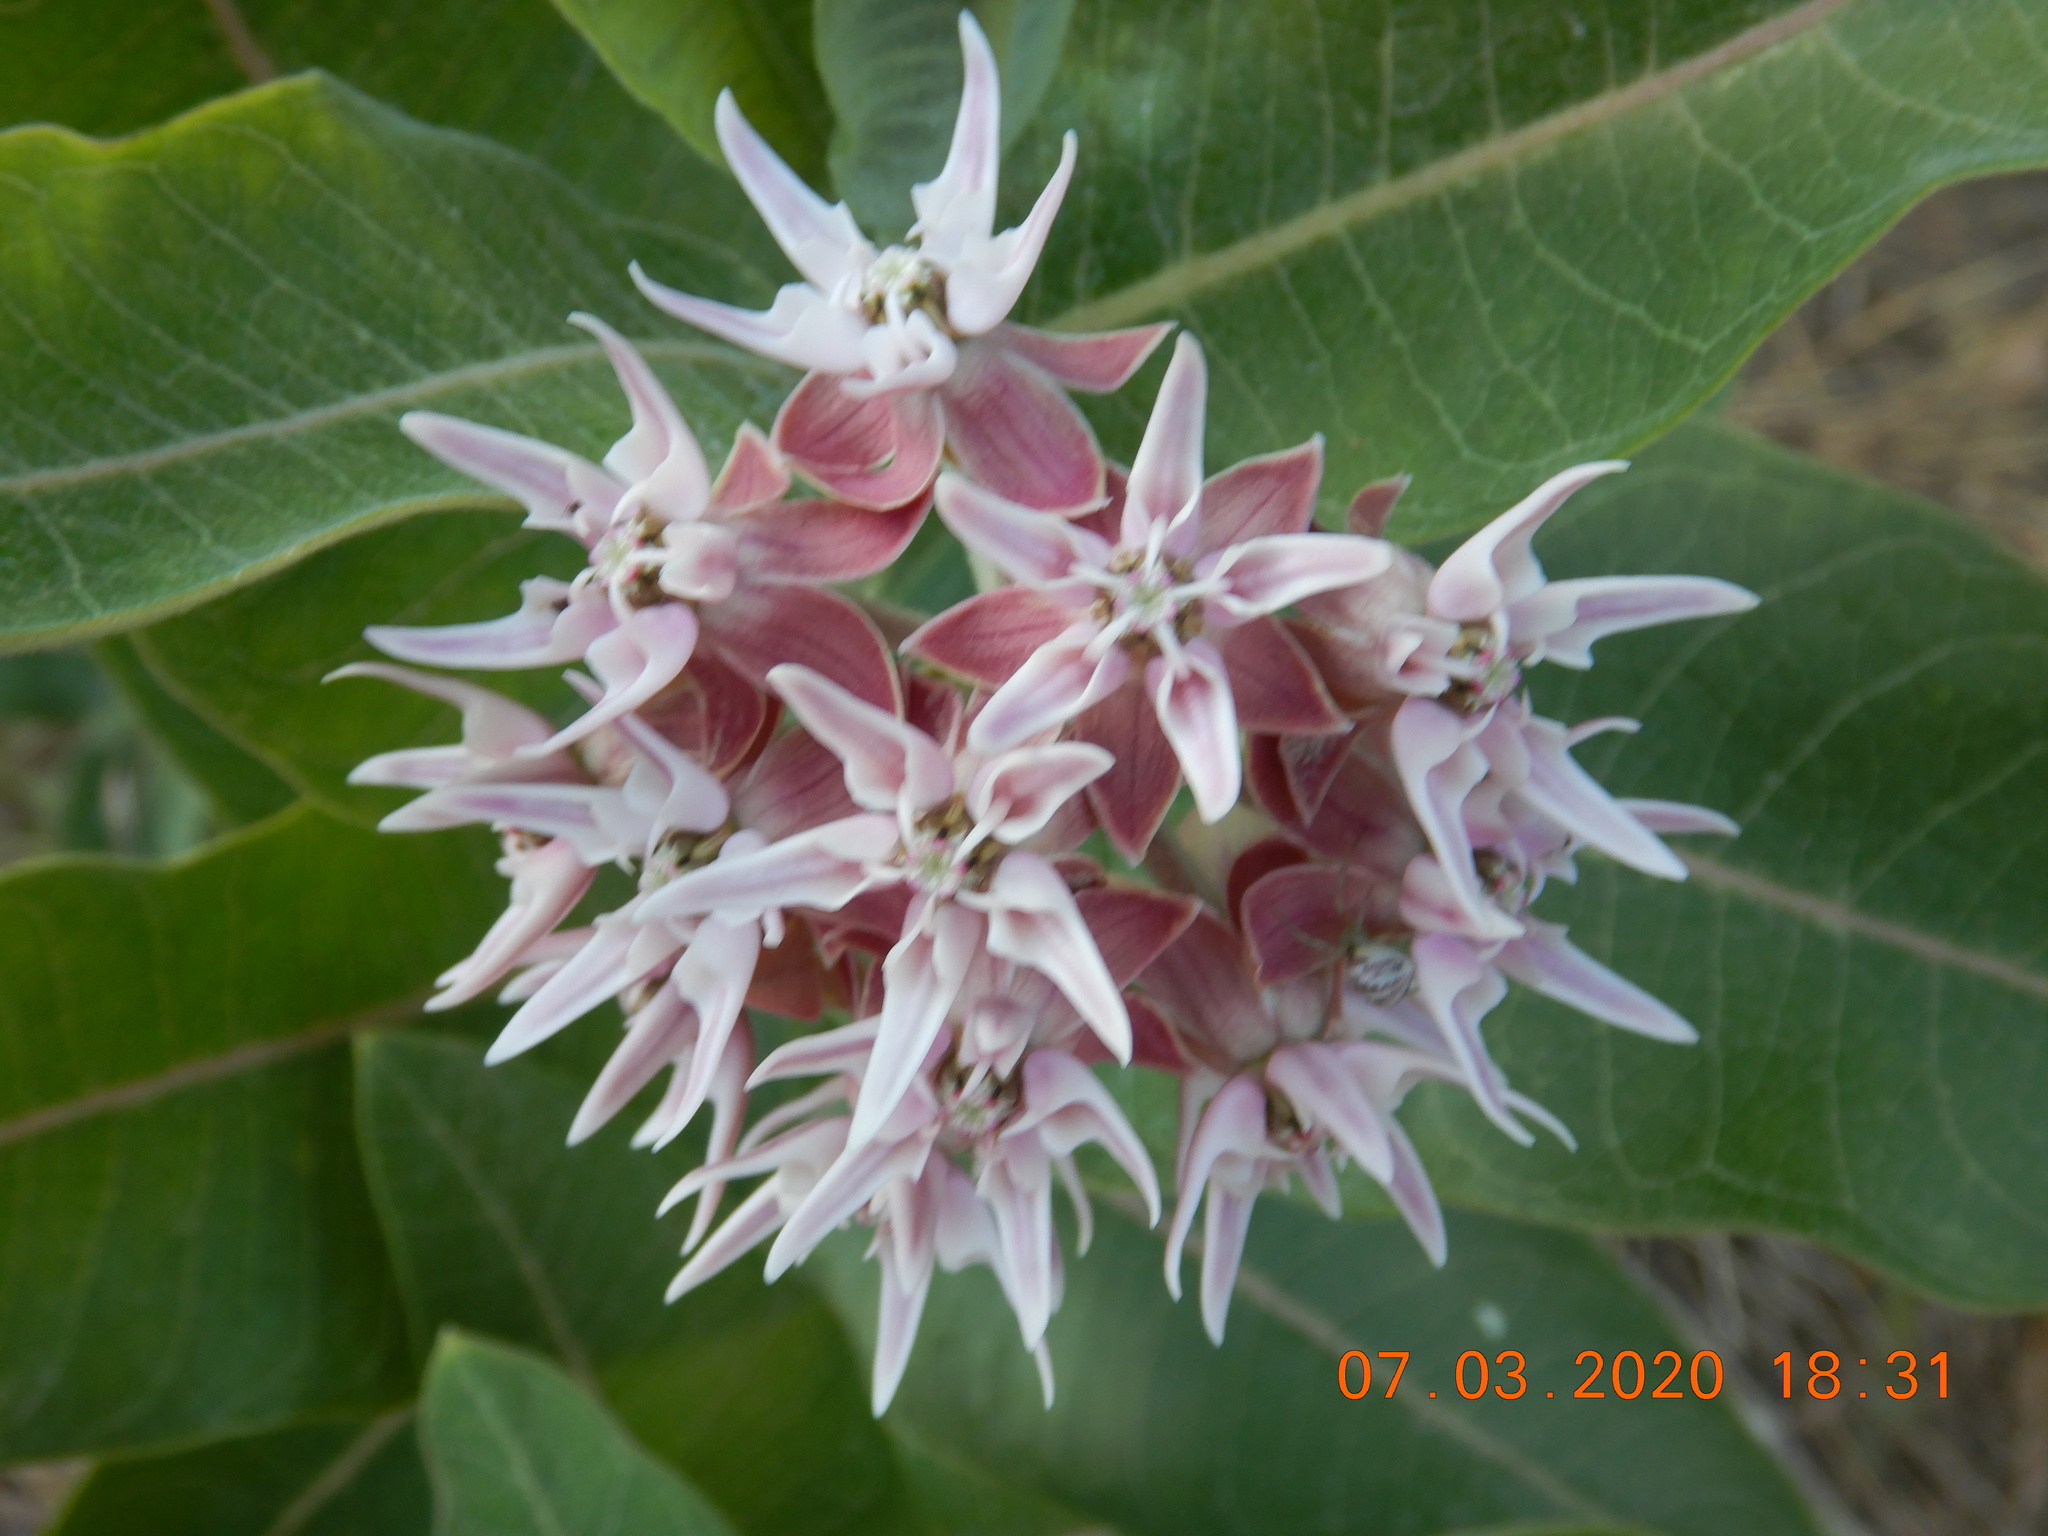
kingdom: Plantae
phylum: Tracheophyta
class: Magnoliopsida
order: Gentianales
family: Apocynaceae
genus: Asclepias
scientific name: Asclepias speciosa
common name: Showy milkweed
